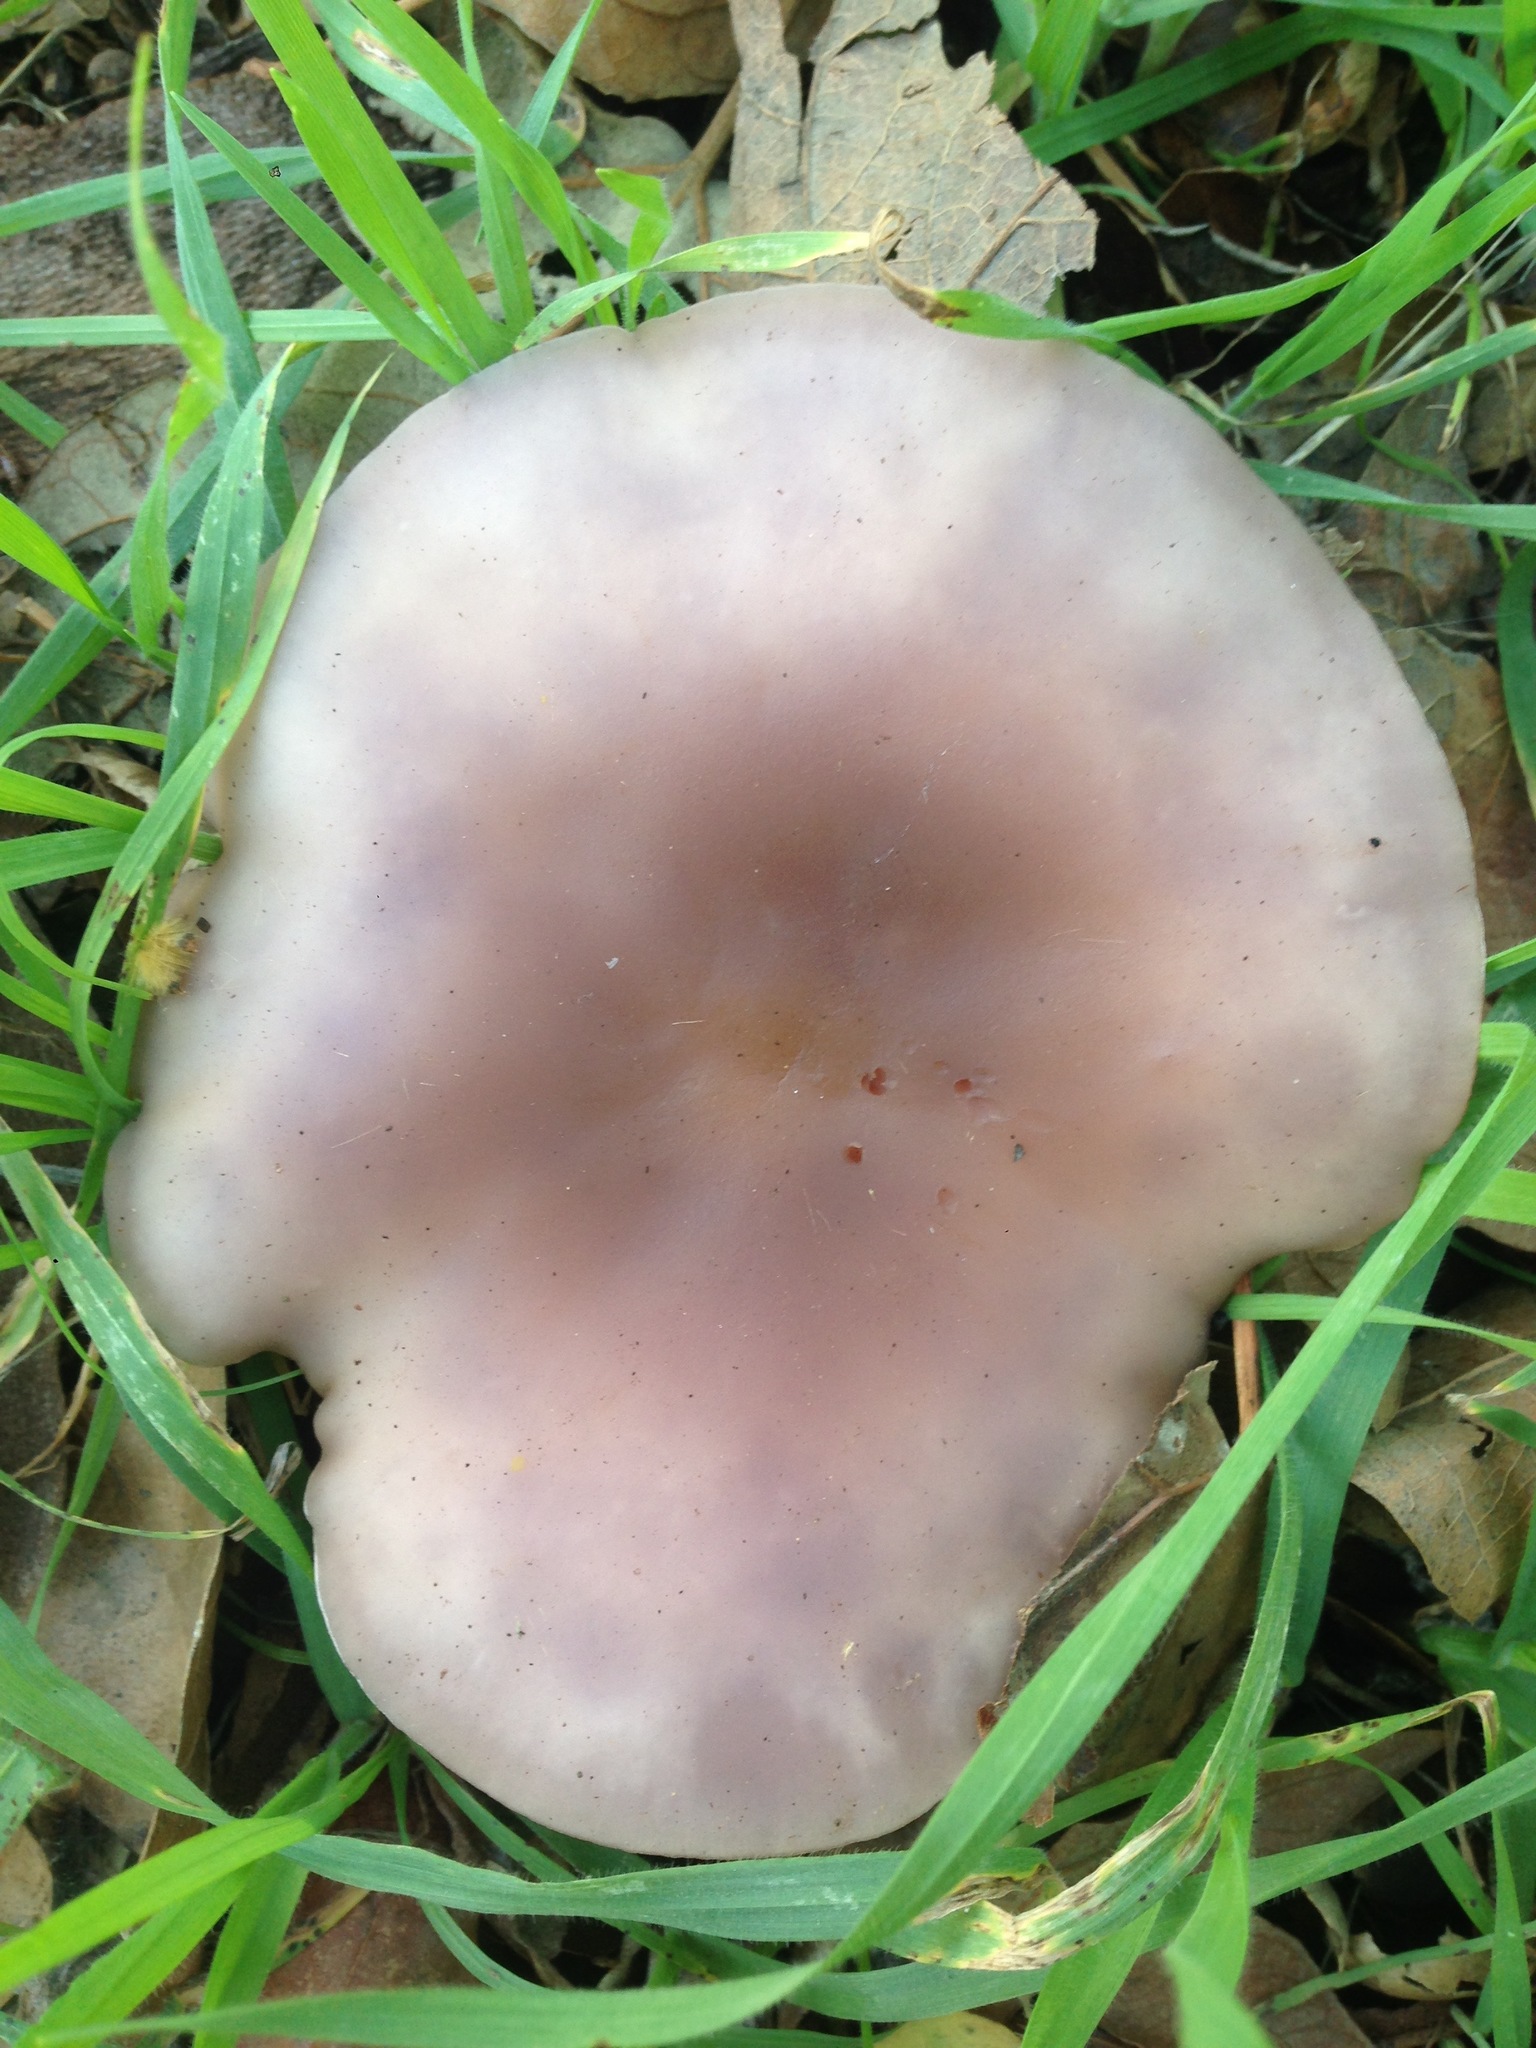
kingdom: Fungi
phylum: Basidiomycota
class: Agaricomycetes
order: Agaricales
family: Tricholomataceae
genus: Collybia
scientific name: Collybia
